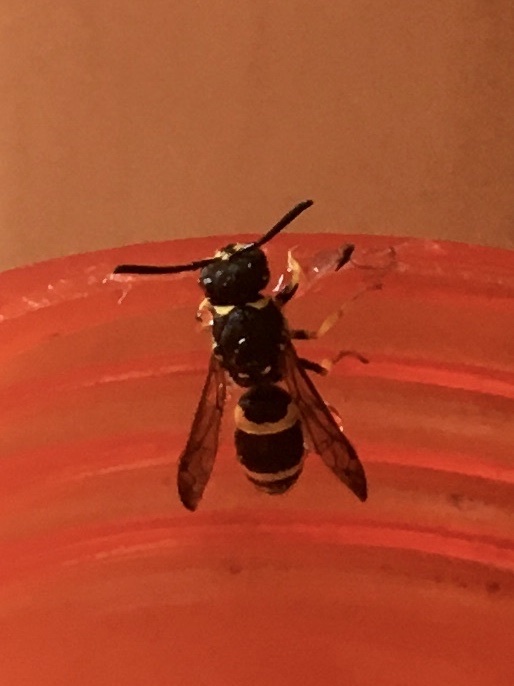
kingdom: Animalia
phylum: Arthropoda
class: Insecta
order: Hymenoptera
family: Apidae
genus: Bombus
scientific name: Bombus terrestris
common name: Buff-tailed bumblebee
